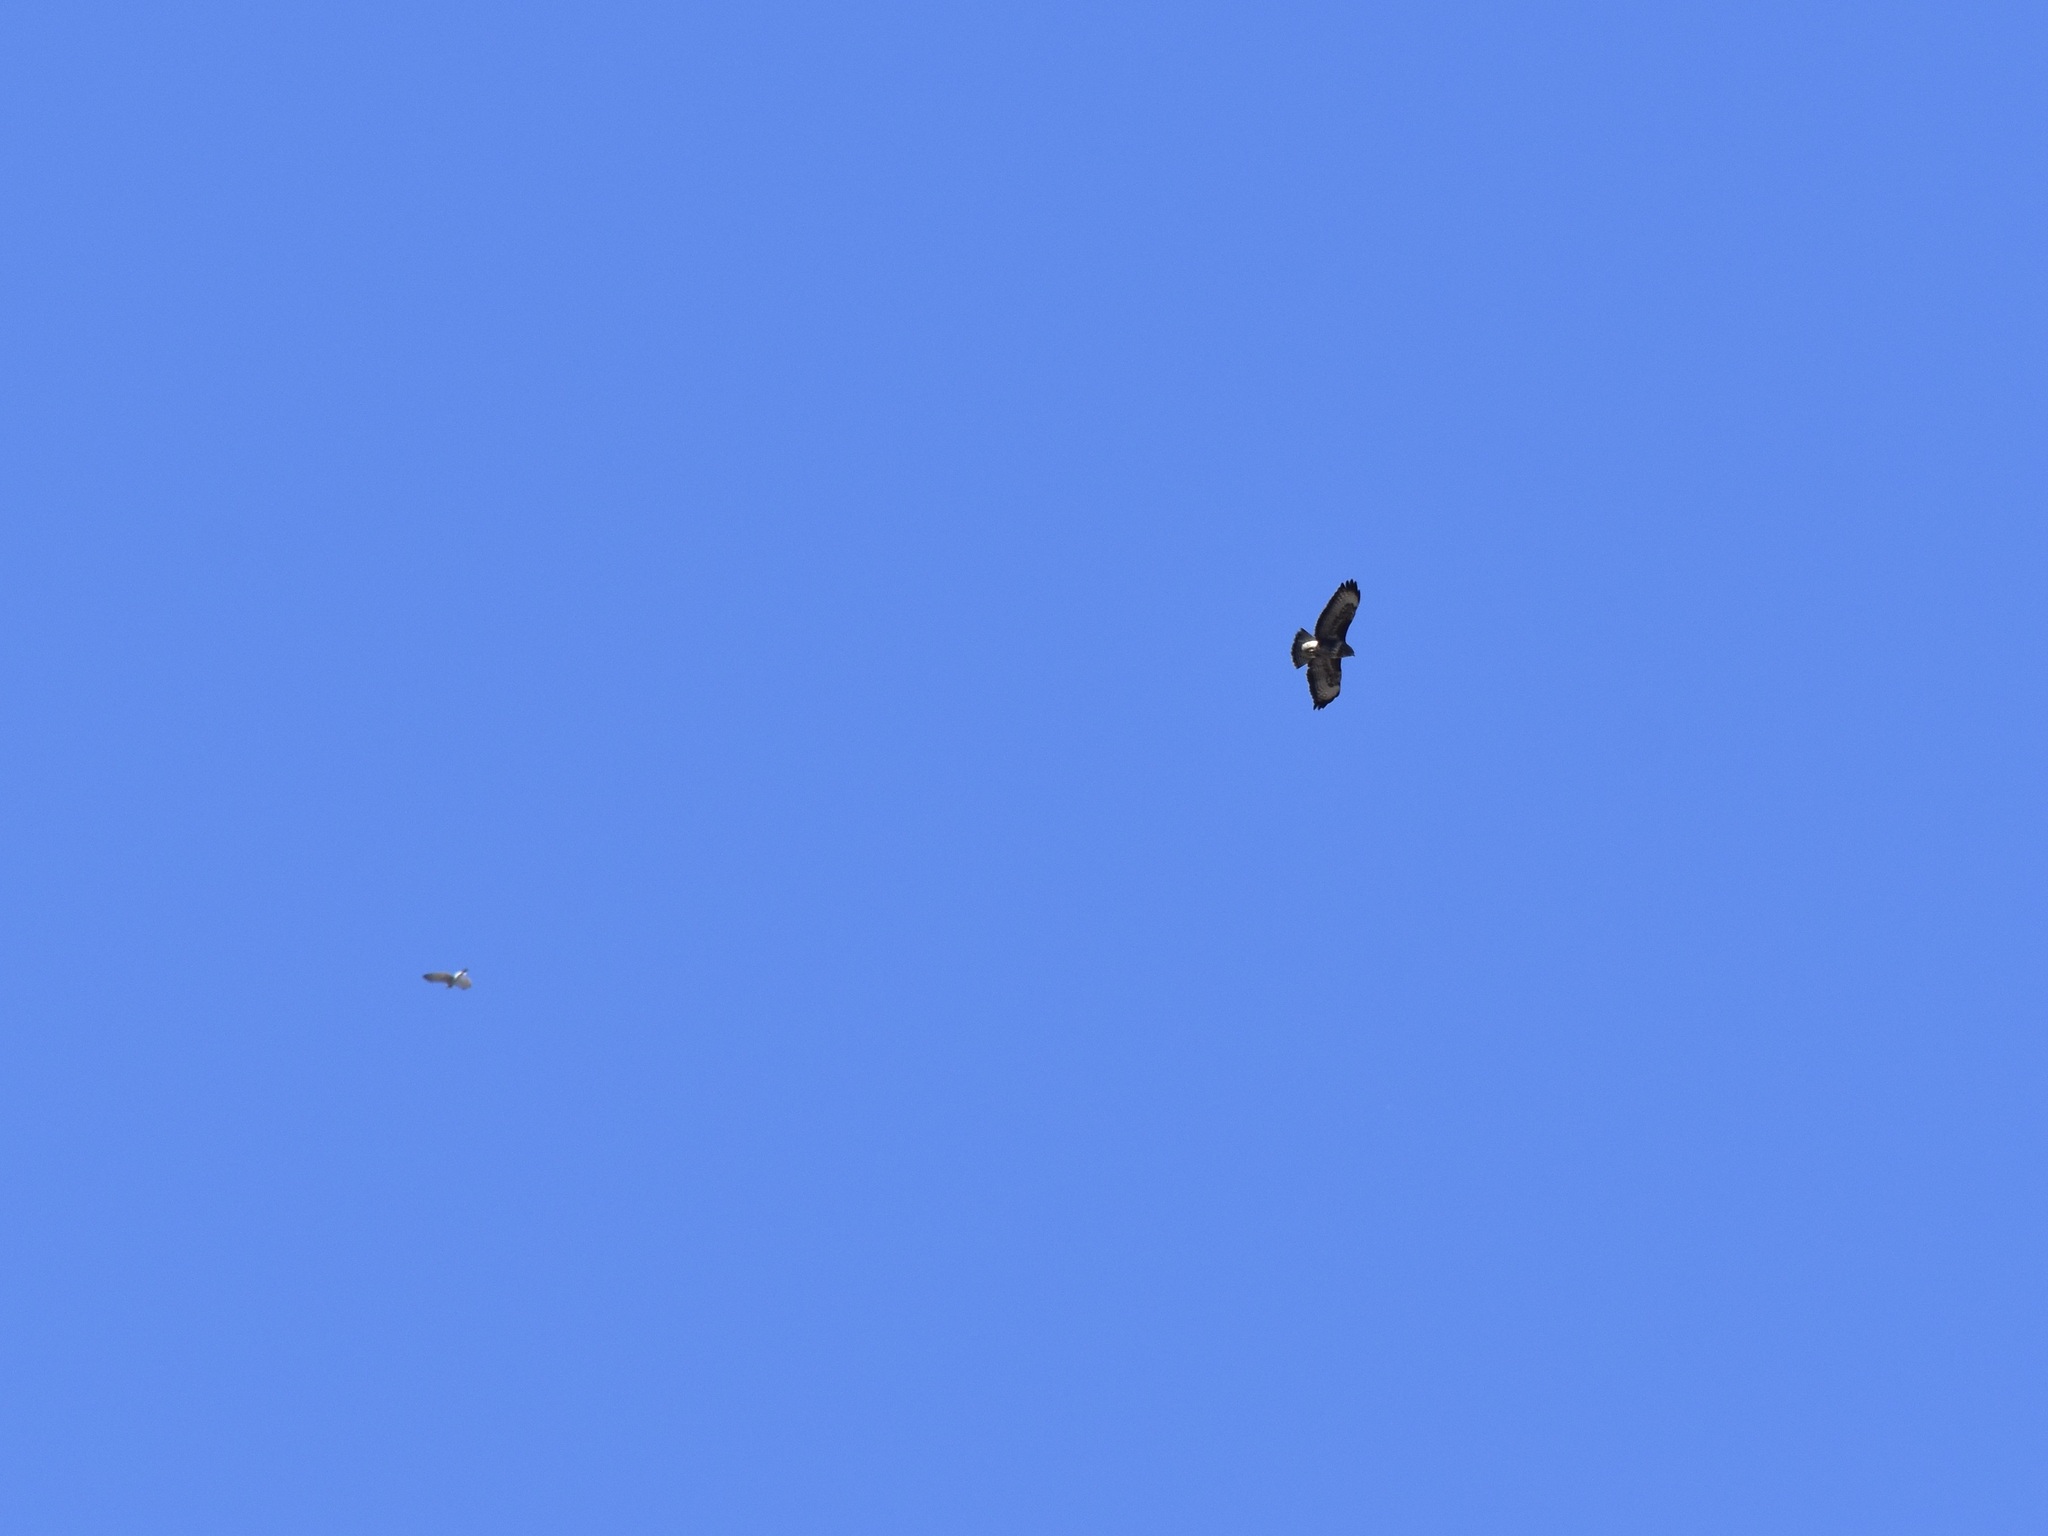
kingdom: Animalia
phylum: Chordata
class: Aves
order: Accipitriformes
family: Accipitridae
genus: Buteo
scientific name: Buteo buteo
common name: Common buzzard
